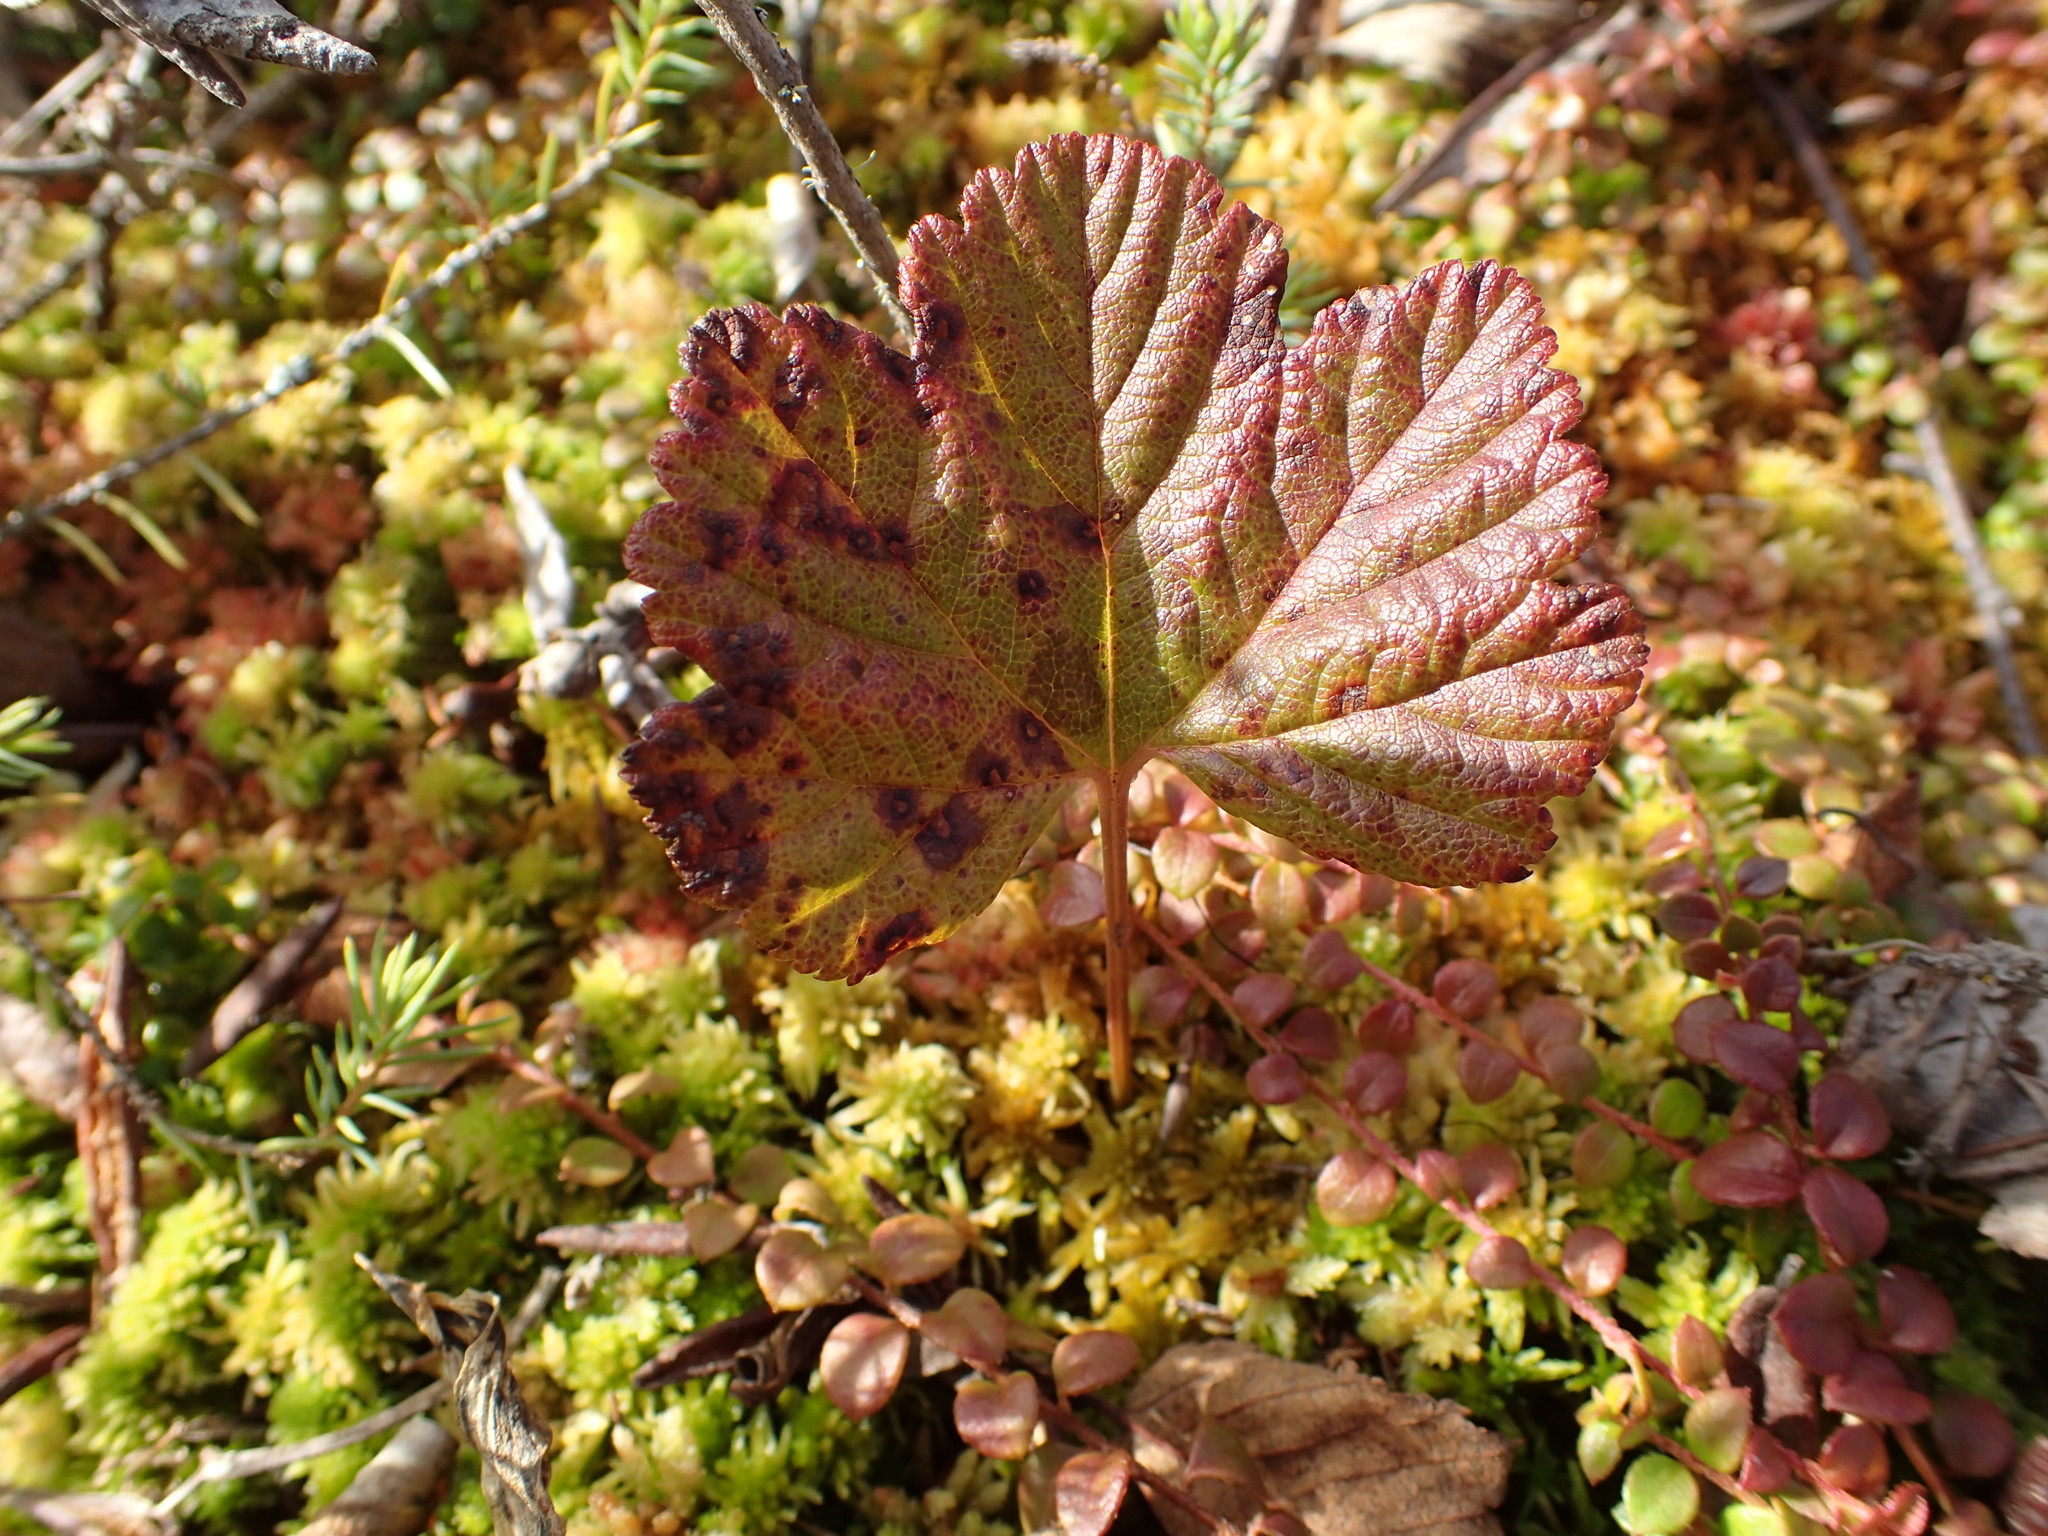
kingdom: Plantae
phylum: Tracheophyta
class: Magnoliopsida
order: Rosales
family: Rosaceae
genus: Rubus
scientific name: Rubus chamaemorus
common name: Cloudberry
